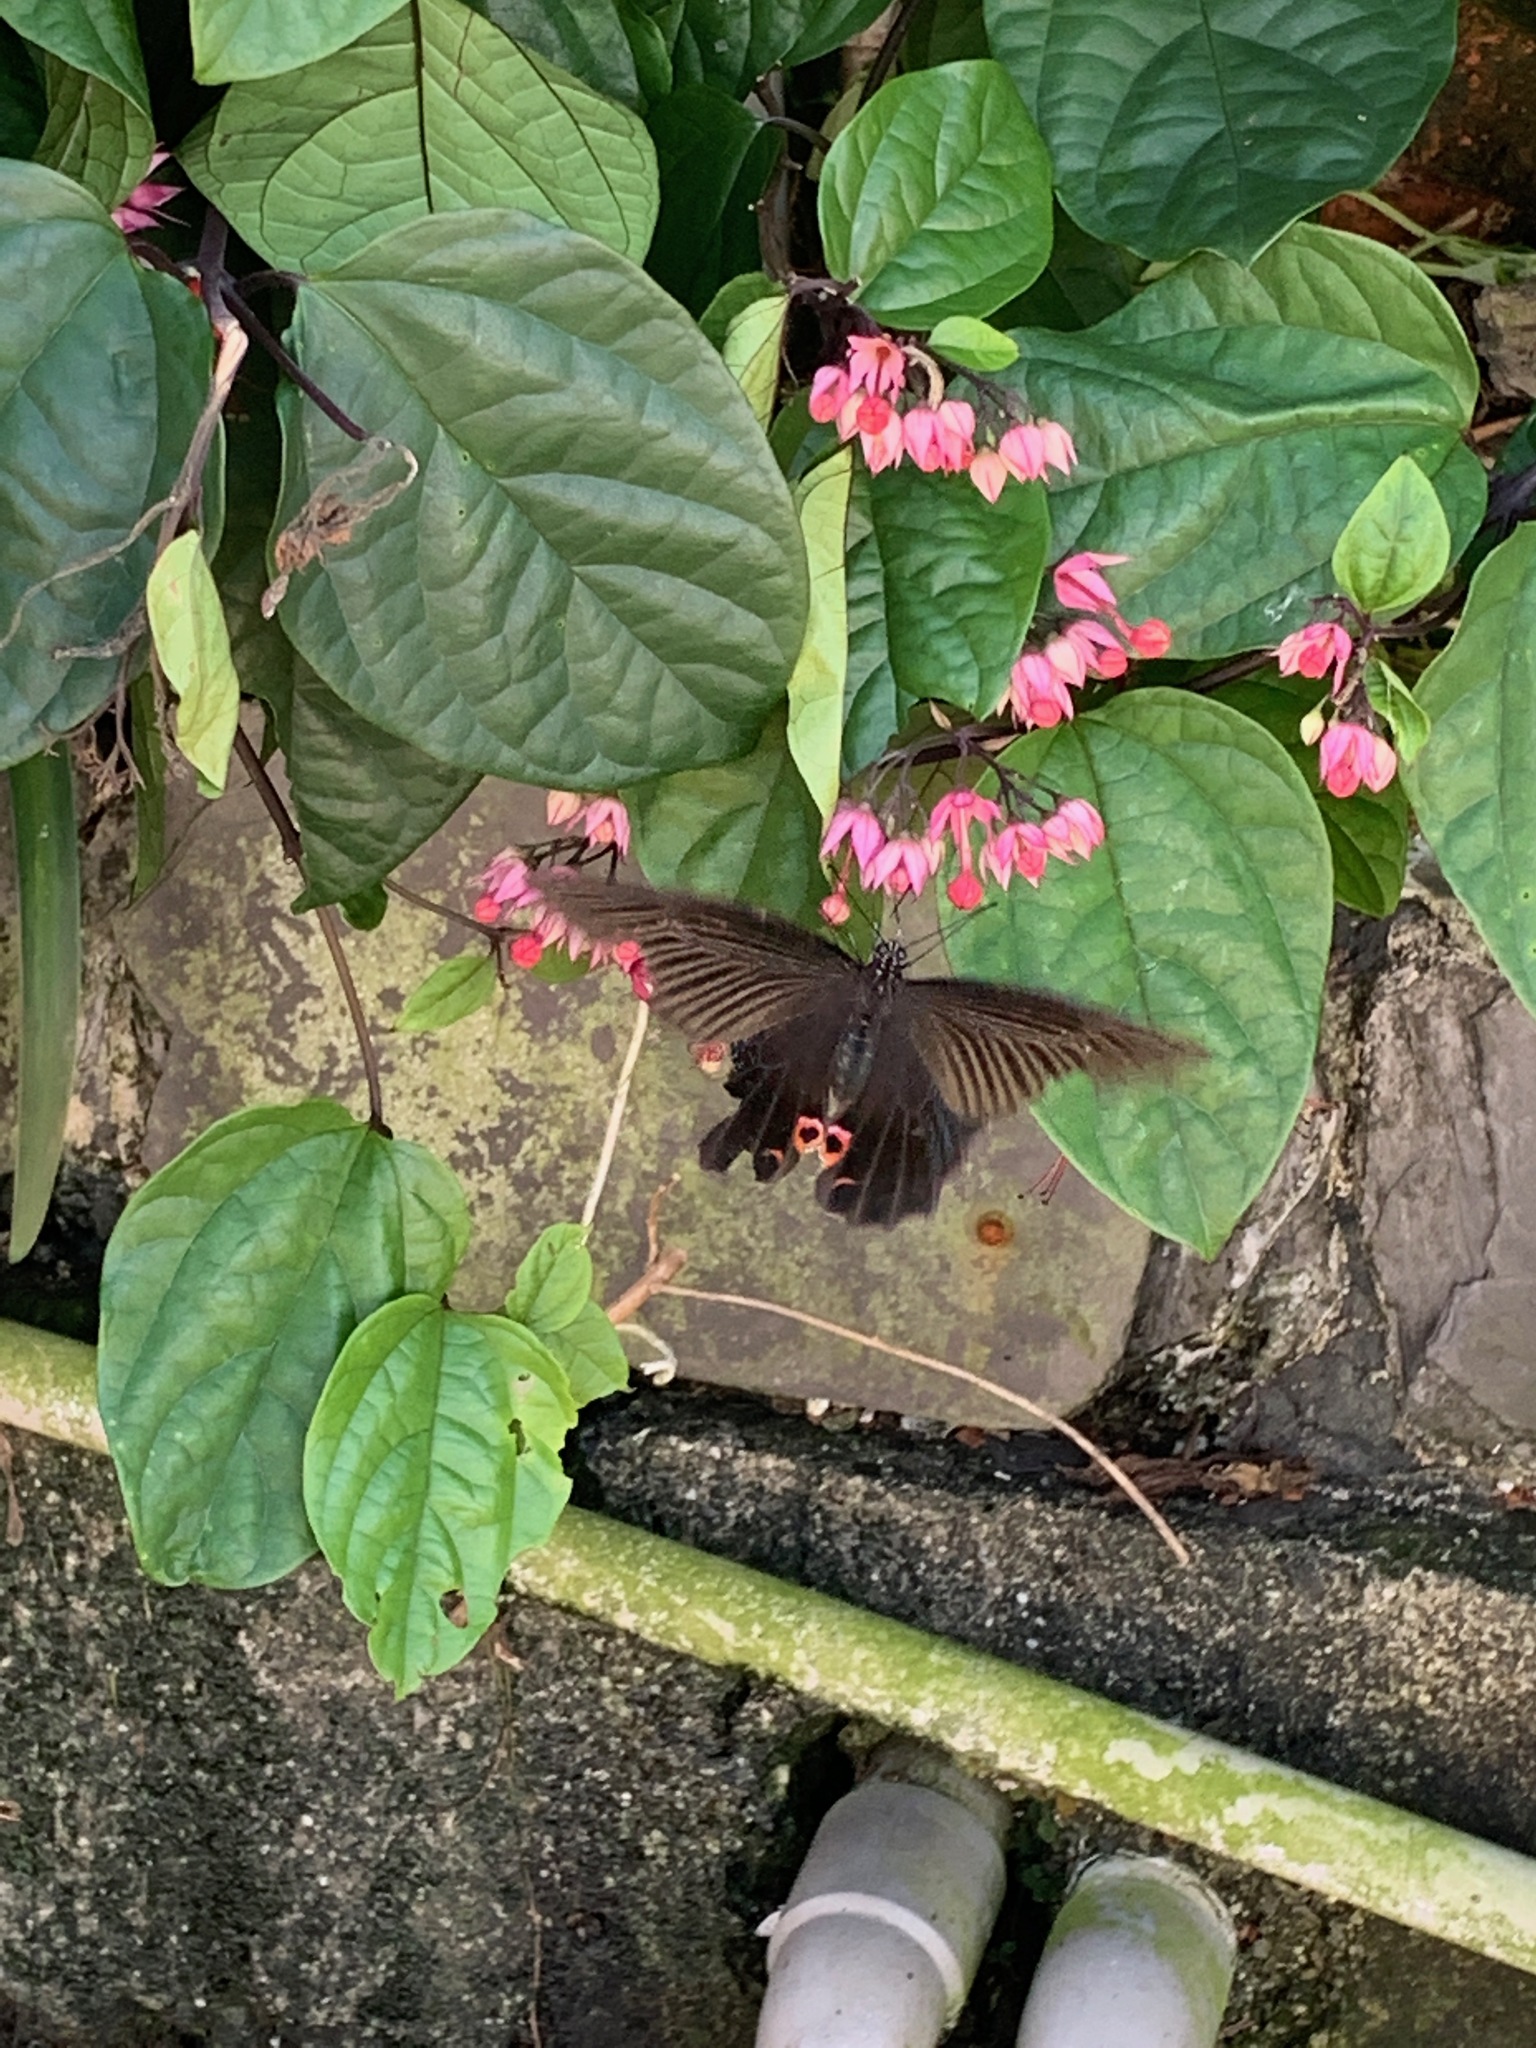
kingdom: Animalia
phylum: Arthropoda
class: Insecta
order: Lepidoptera
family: Papilionidae
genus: Papilio
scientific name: Papilio protenor
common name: Spangle
